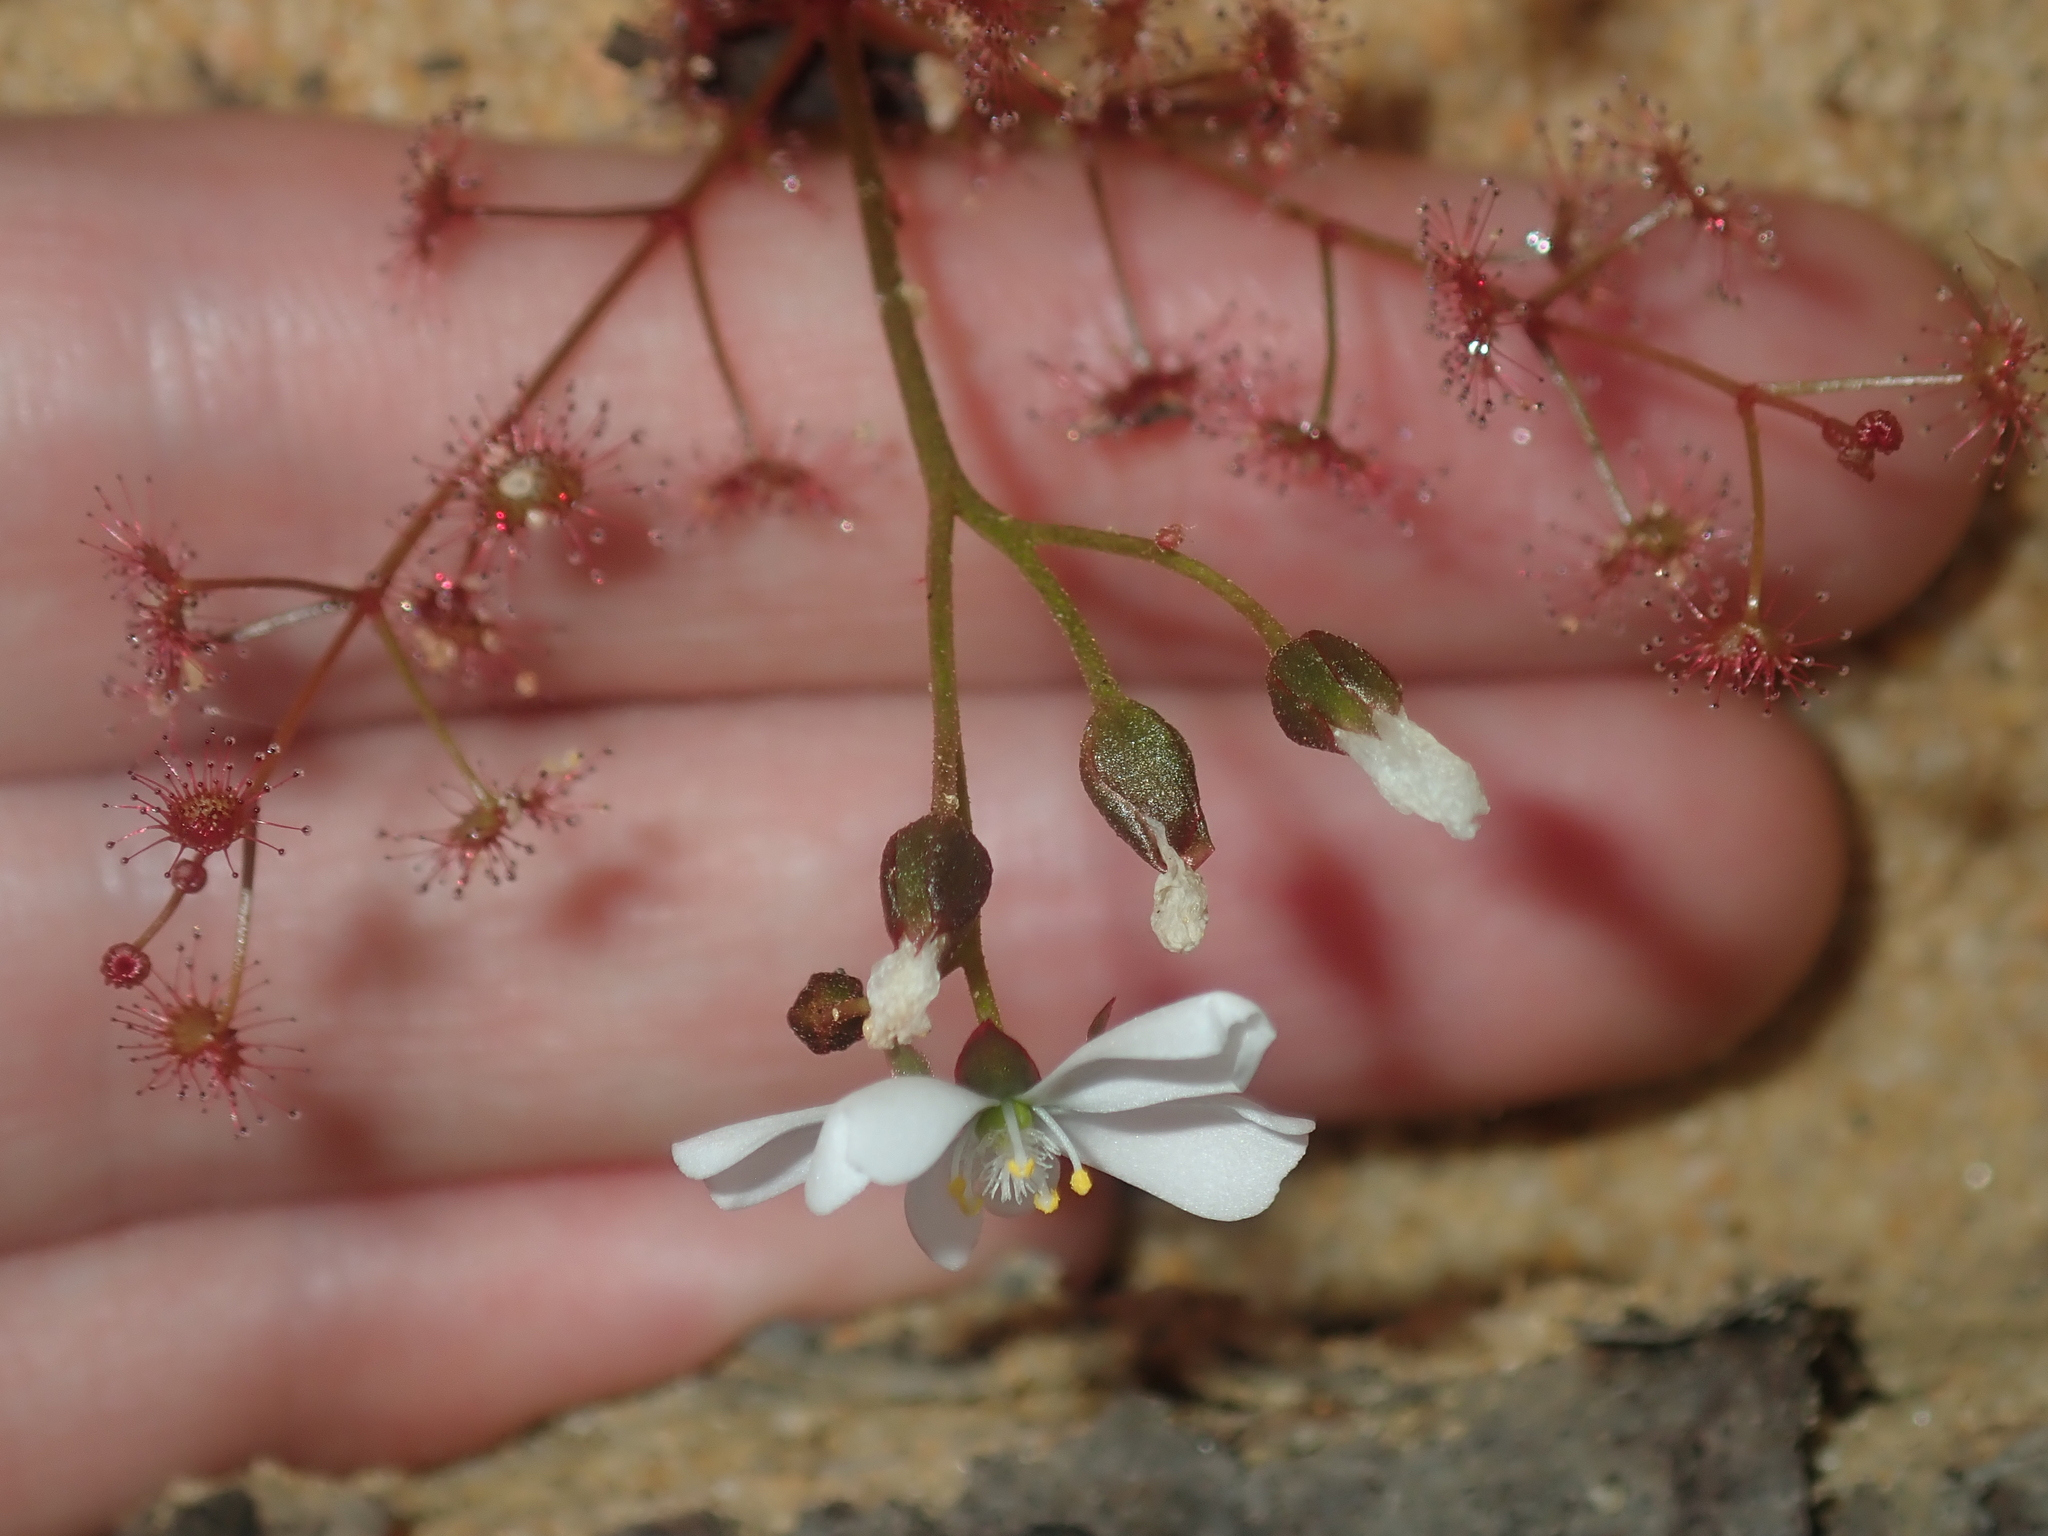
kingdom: Plantae
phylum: Tracheophyta
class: Magnoliopsida
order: Caryophyllales
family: Droseraceae
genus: Drosera
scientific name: Drosera stolonifera
